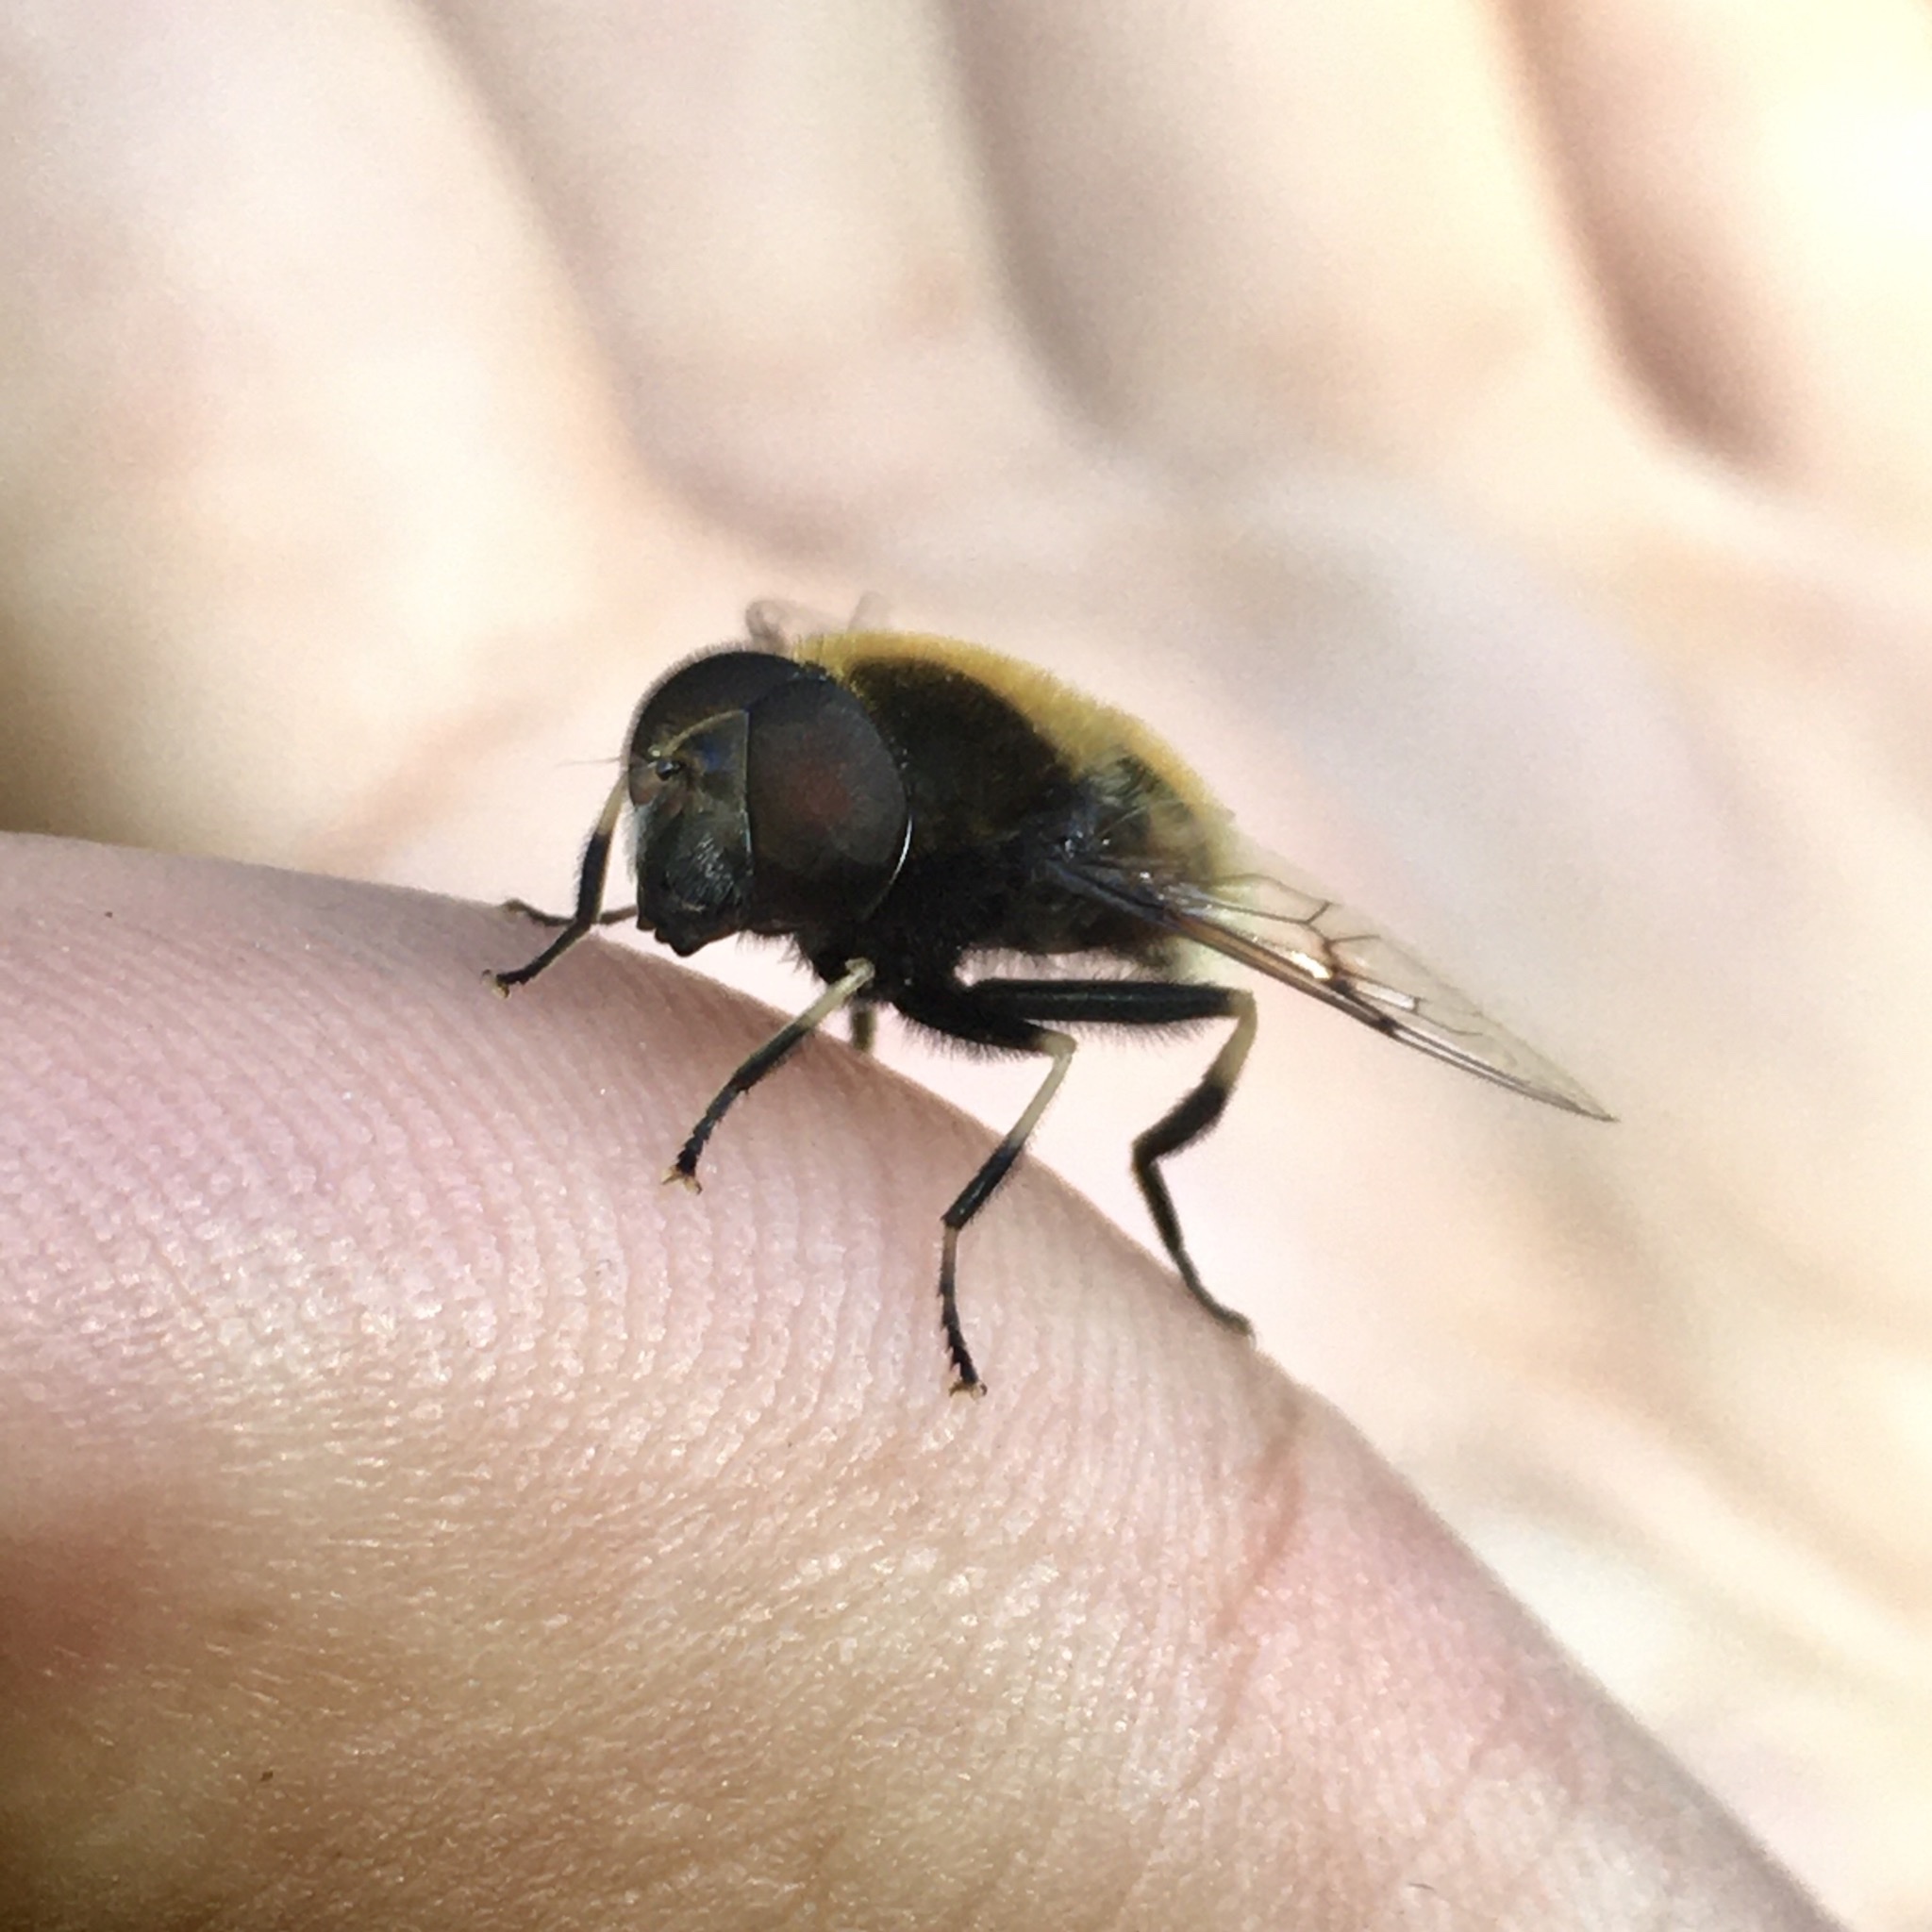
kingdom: Animalia
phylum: Arthropoda
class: Insecta
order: Diptera
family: Syrphidae
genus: Eristalis
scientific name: Eristalis intricaria
